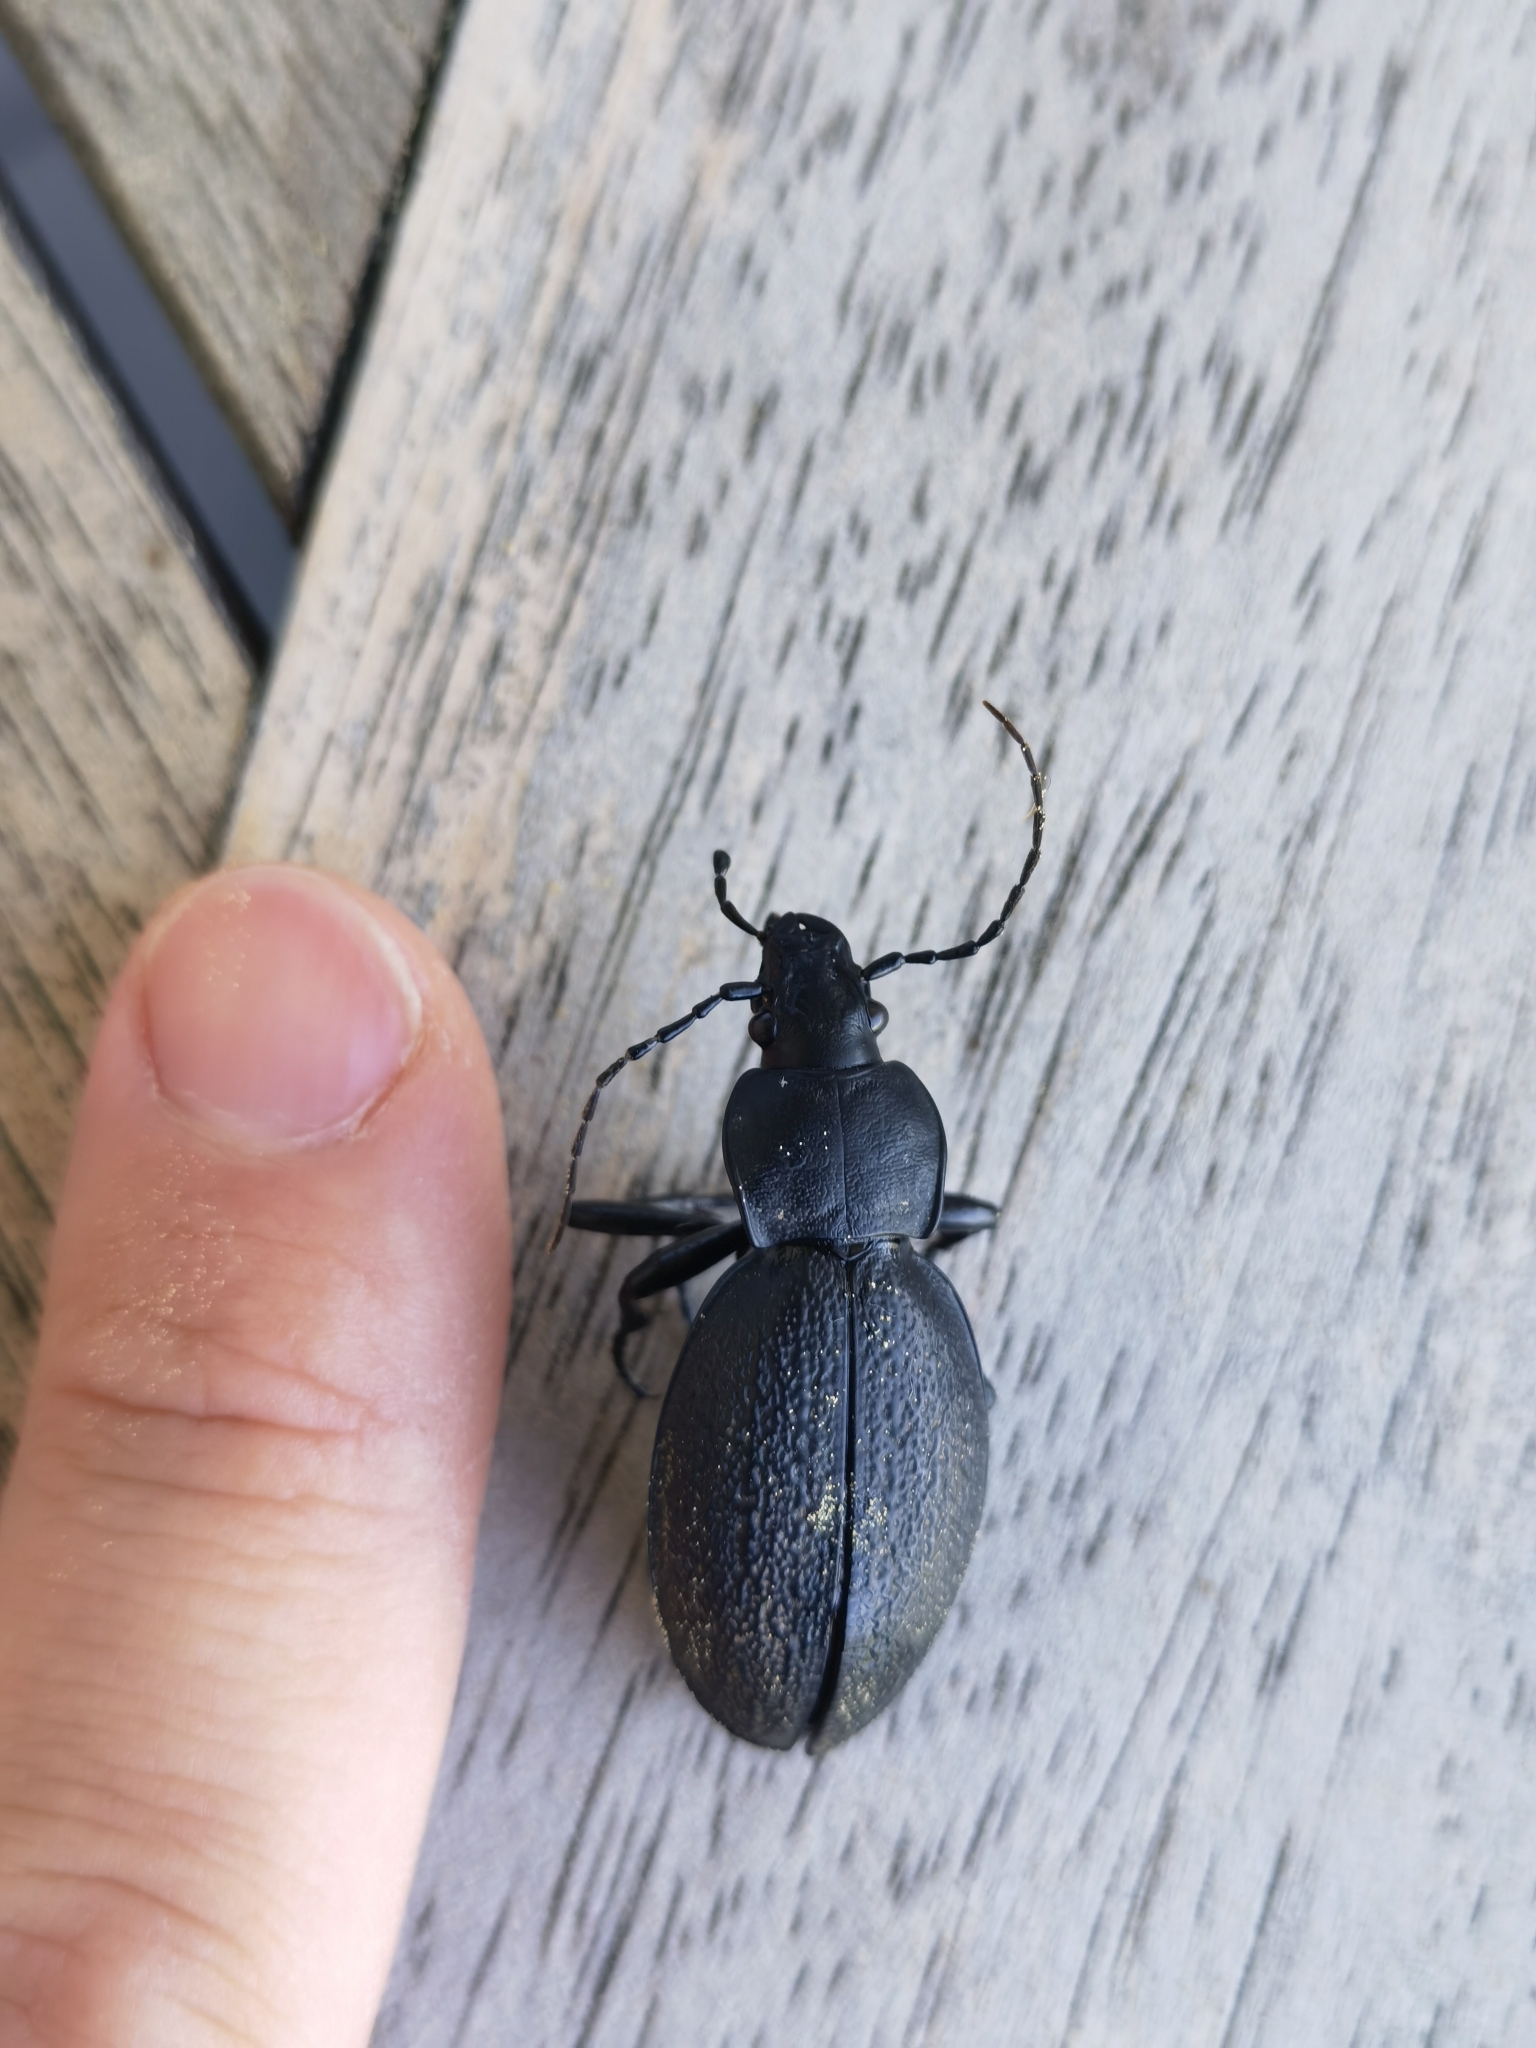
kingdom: Animalia
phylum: Arthropoda
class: Insecta
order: Coleoptera
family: Carabidae
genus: Carabus
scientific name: Carabus coriaceus
